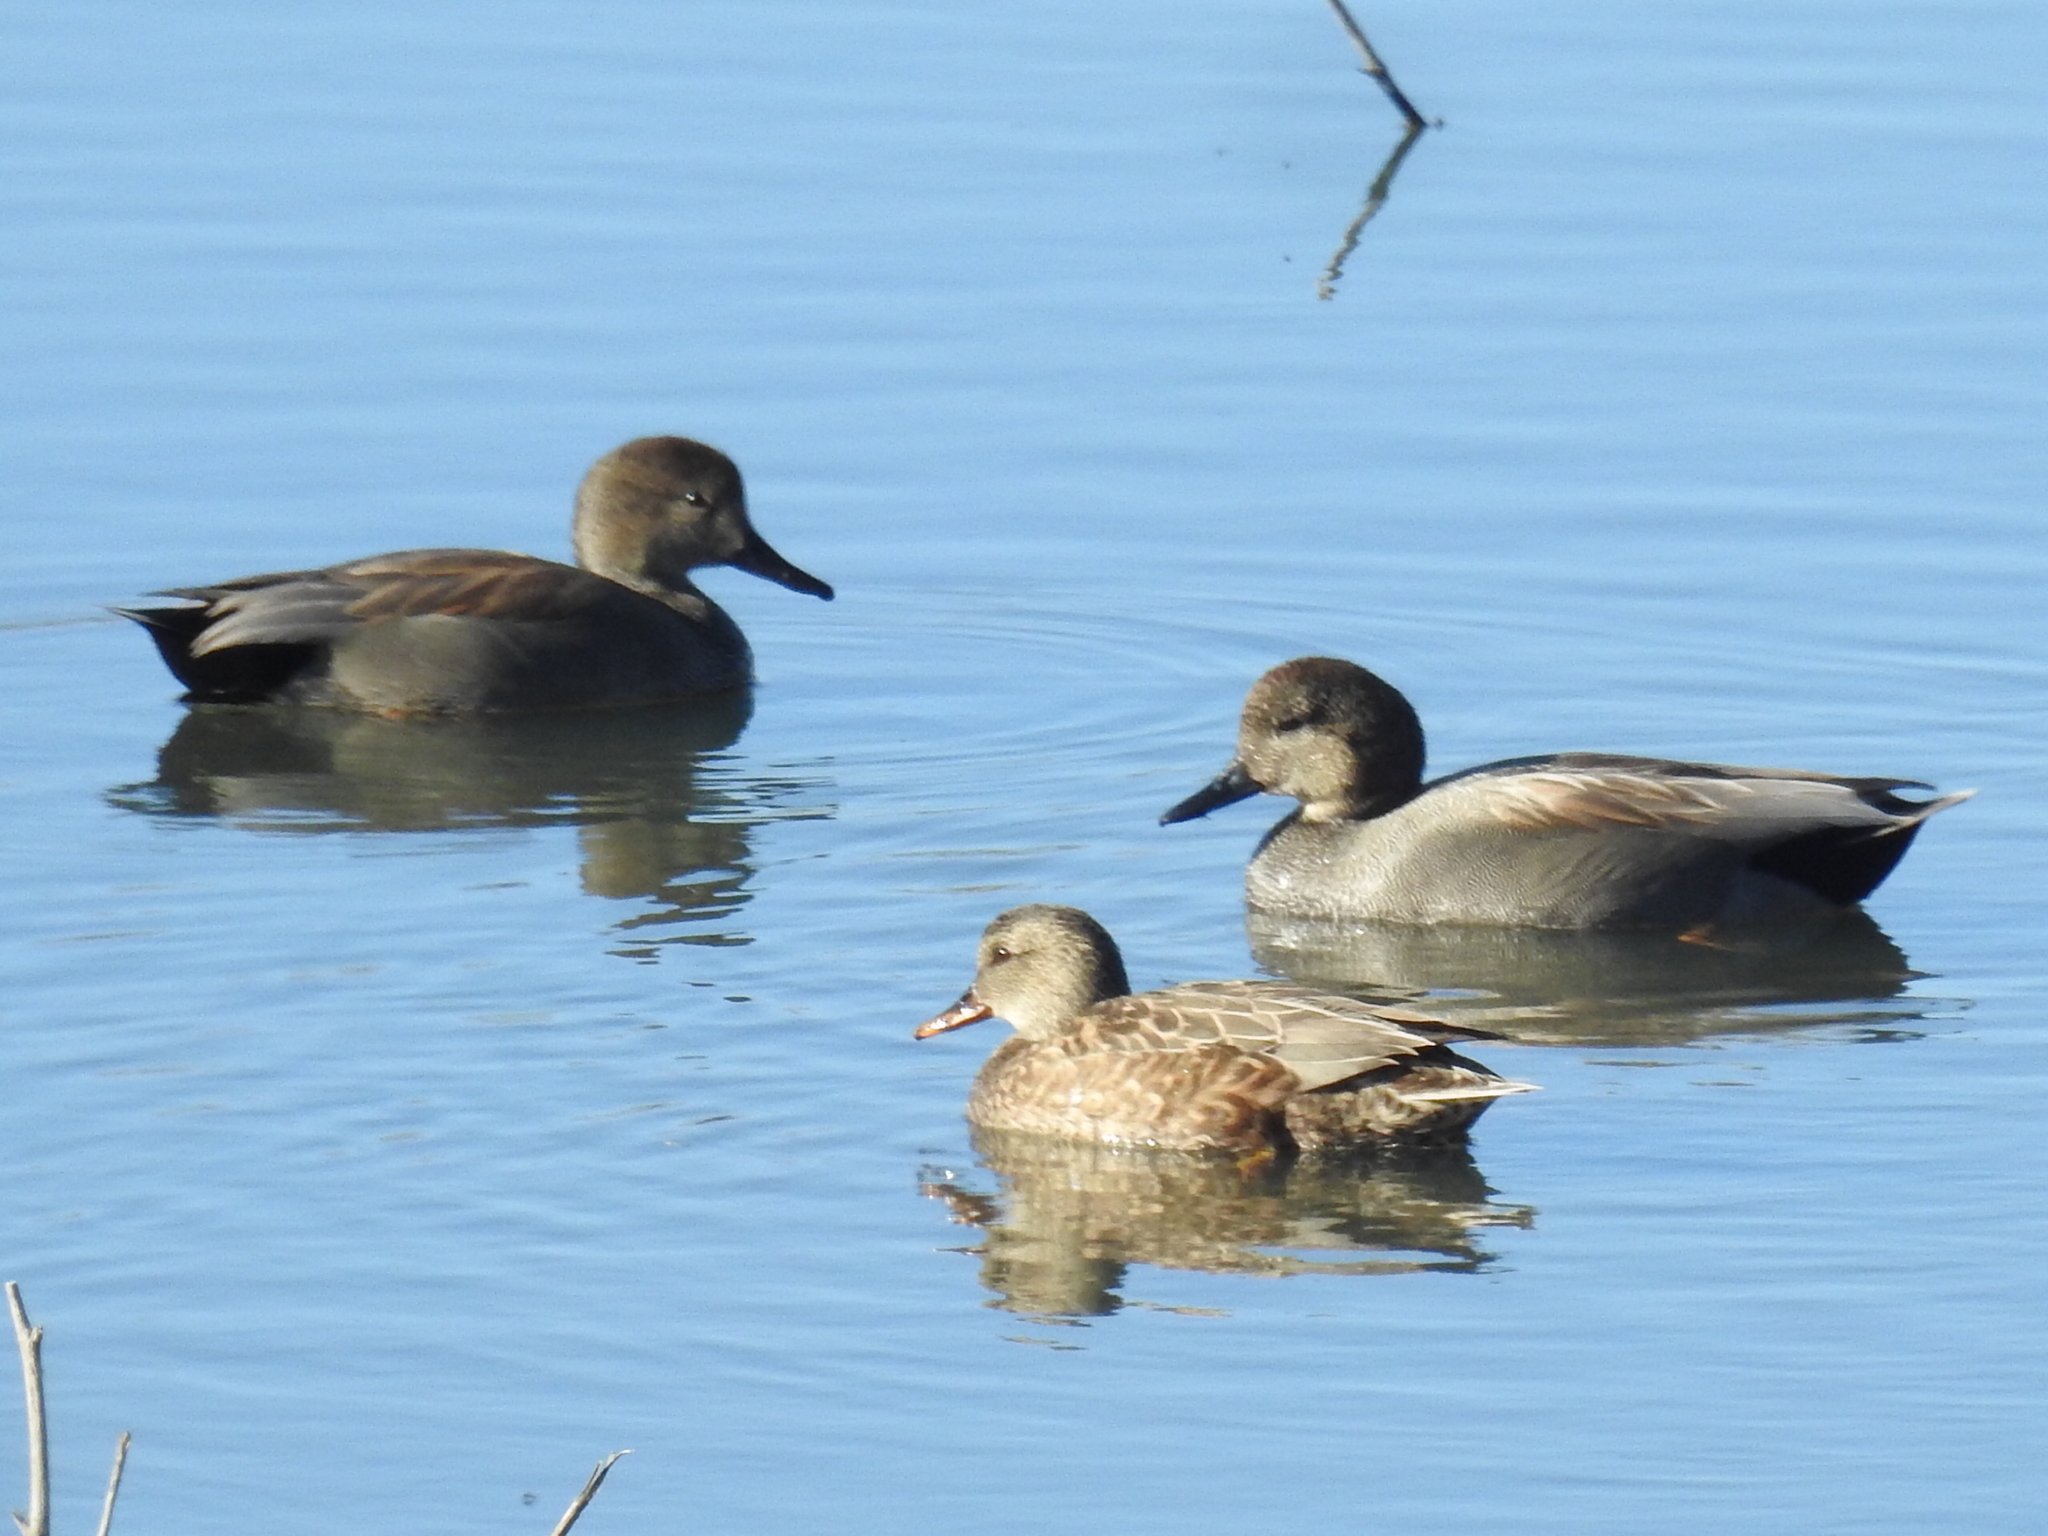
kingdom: Animalia
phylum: Chordata
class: Aves
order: Anseriformes
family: Anatidae
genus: Mareca
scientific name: Mareca strepera
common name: Gadwall
